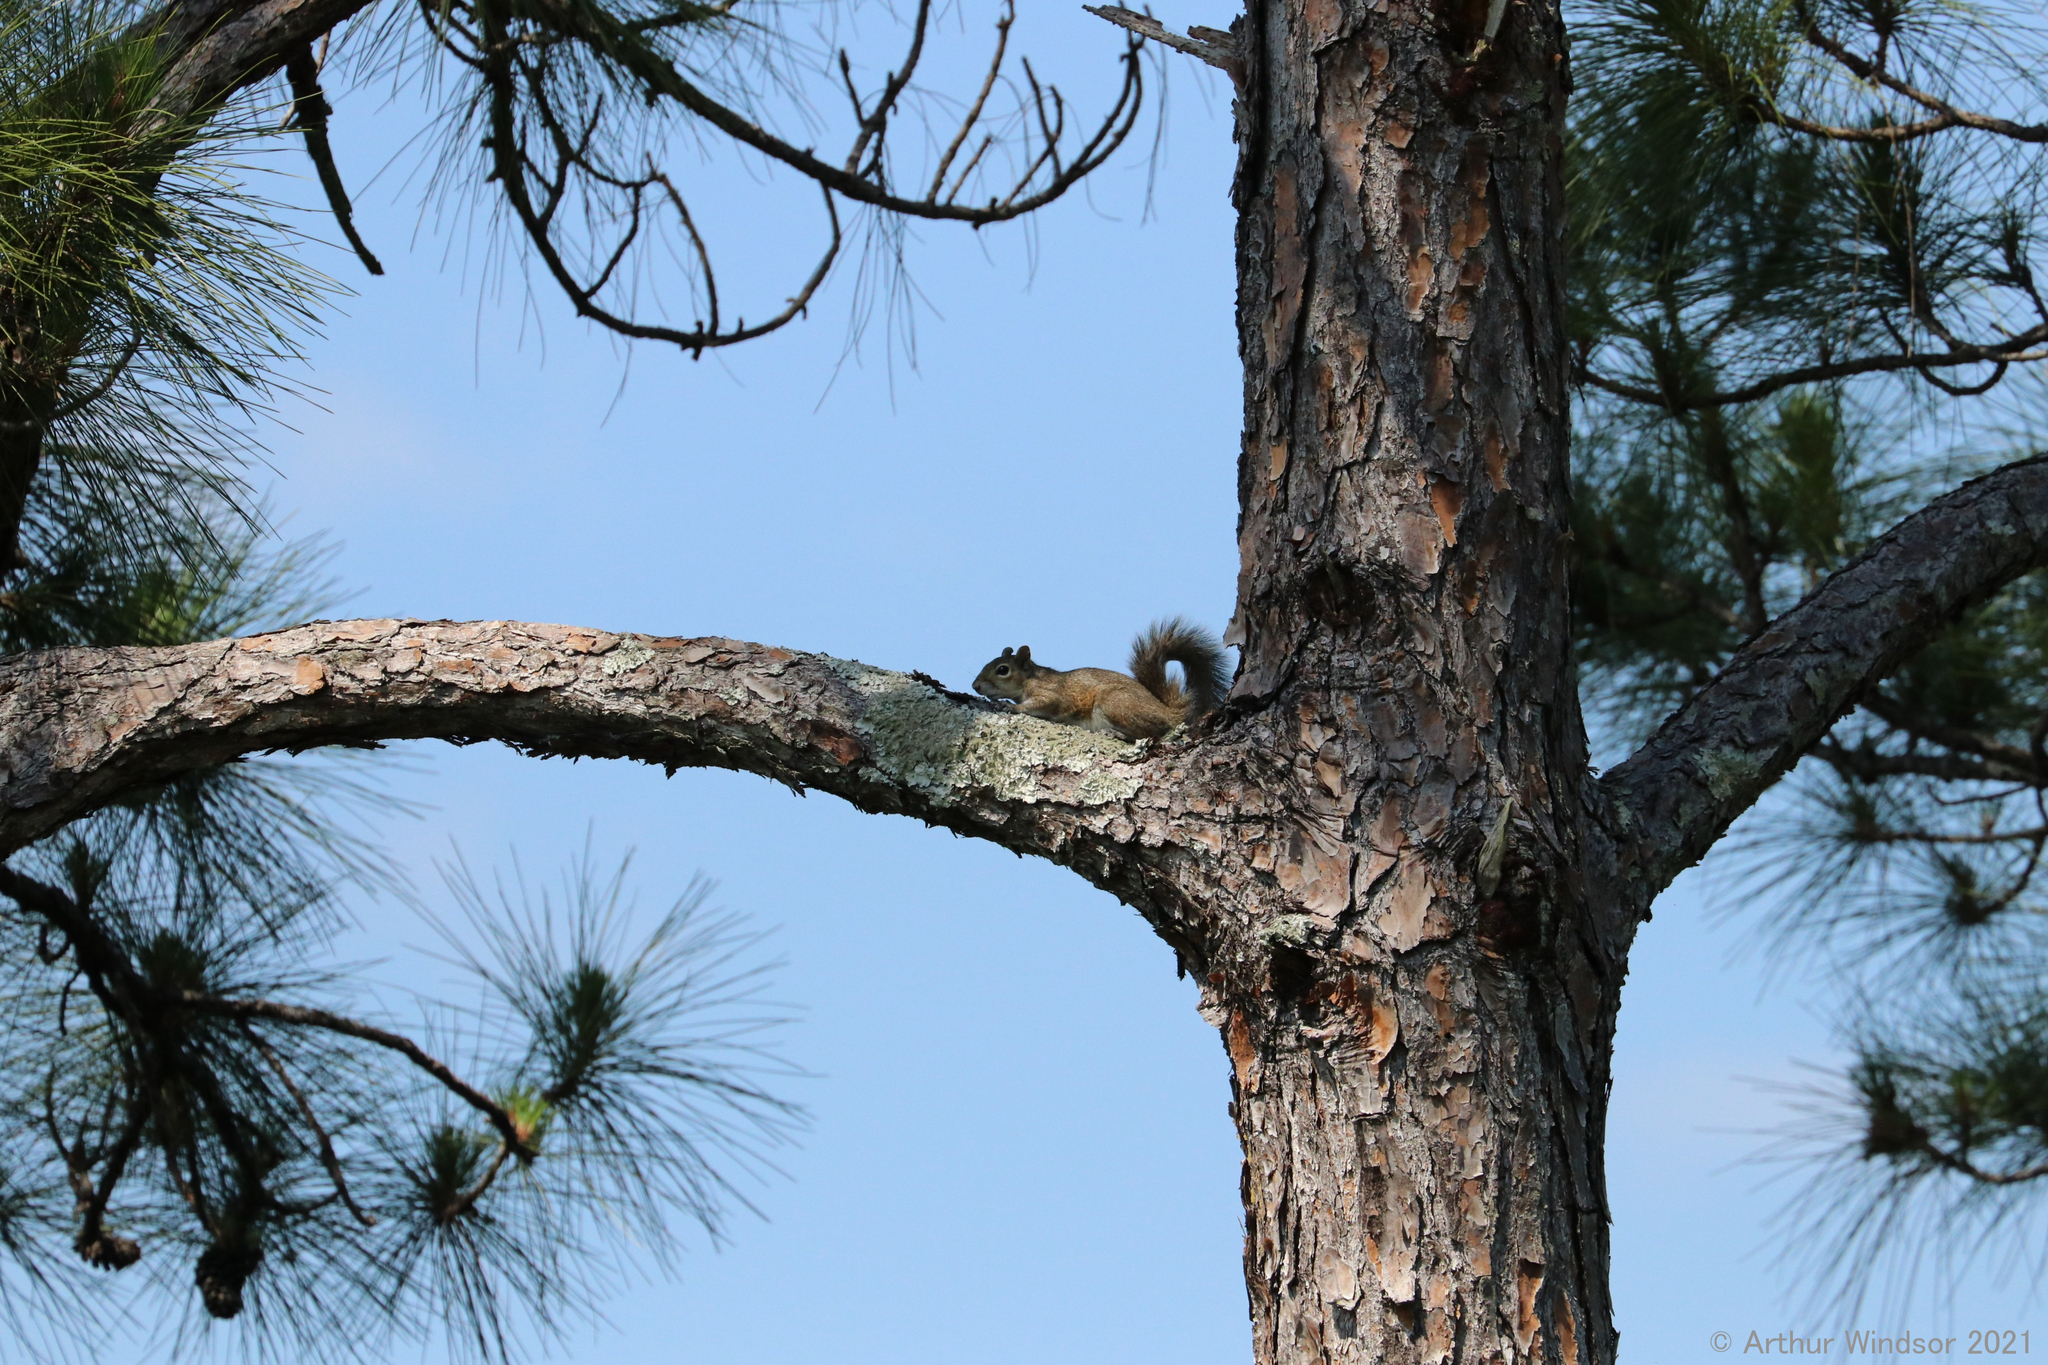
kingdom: Animalia
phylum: Chordata
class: Mammalia
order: Rodentia
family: Sciuridae
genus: Sciurus
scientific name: Sciurus carolinensis
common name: Eastern gray squirrel
